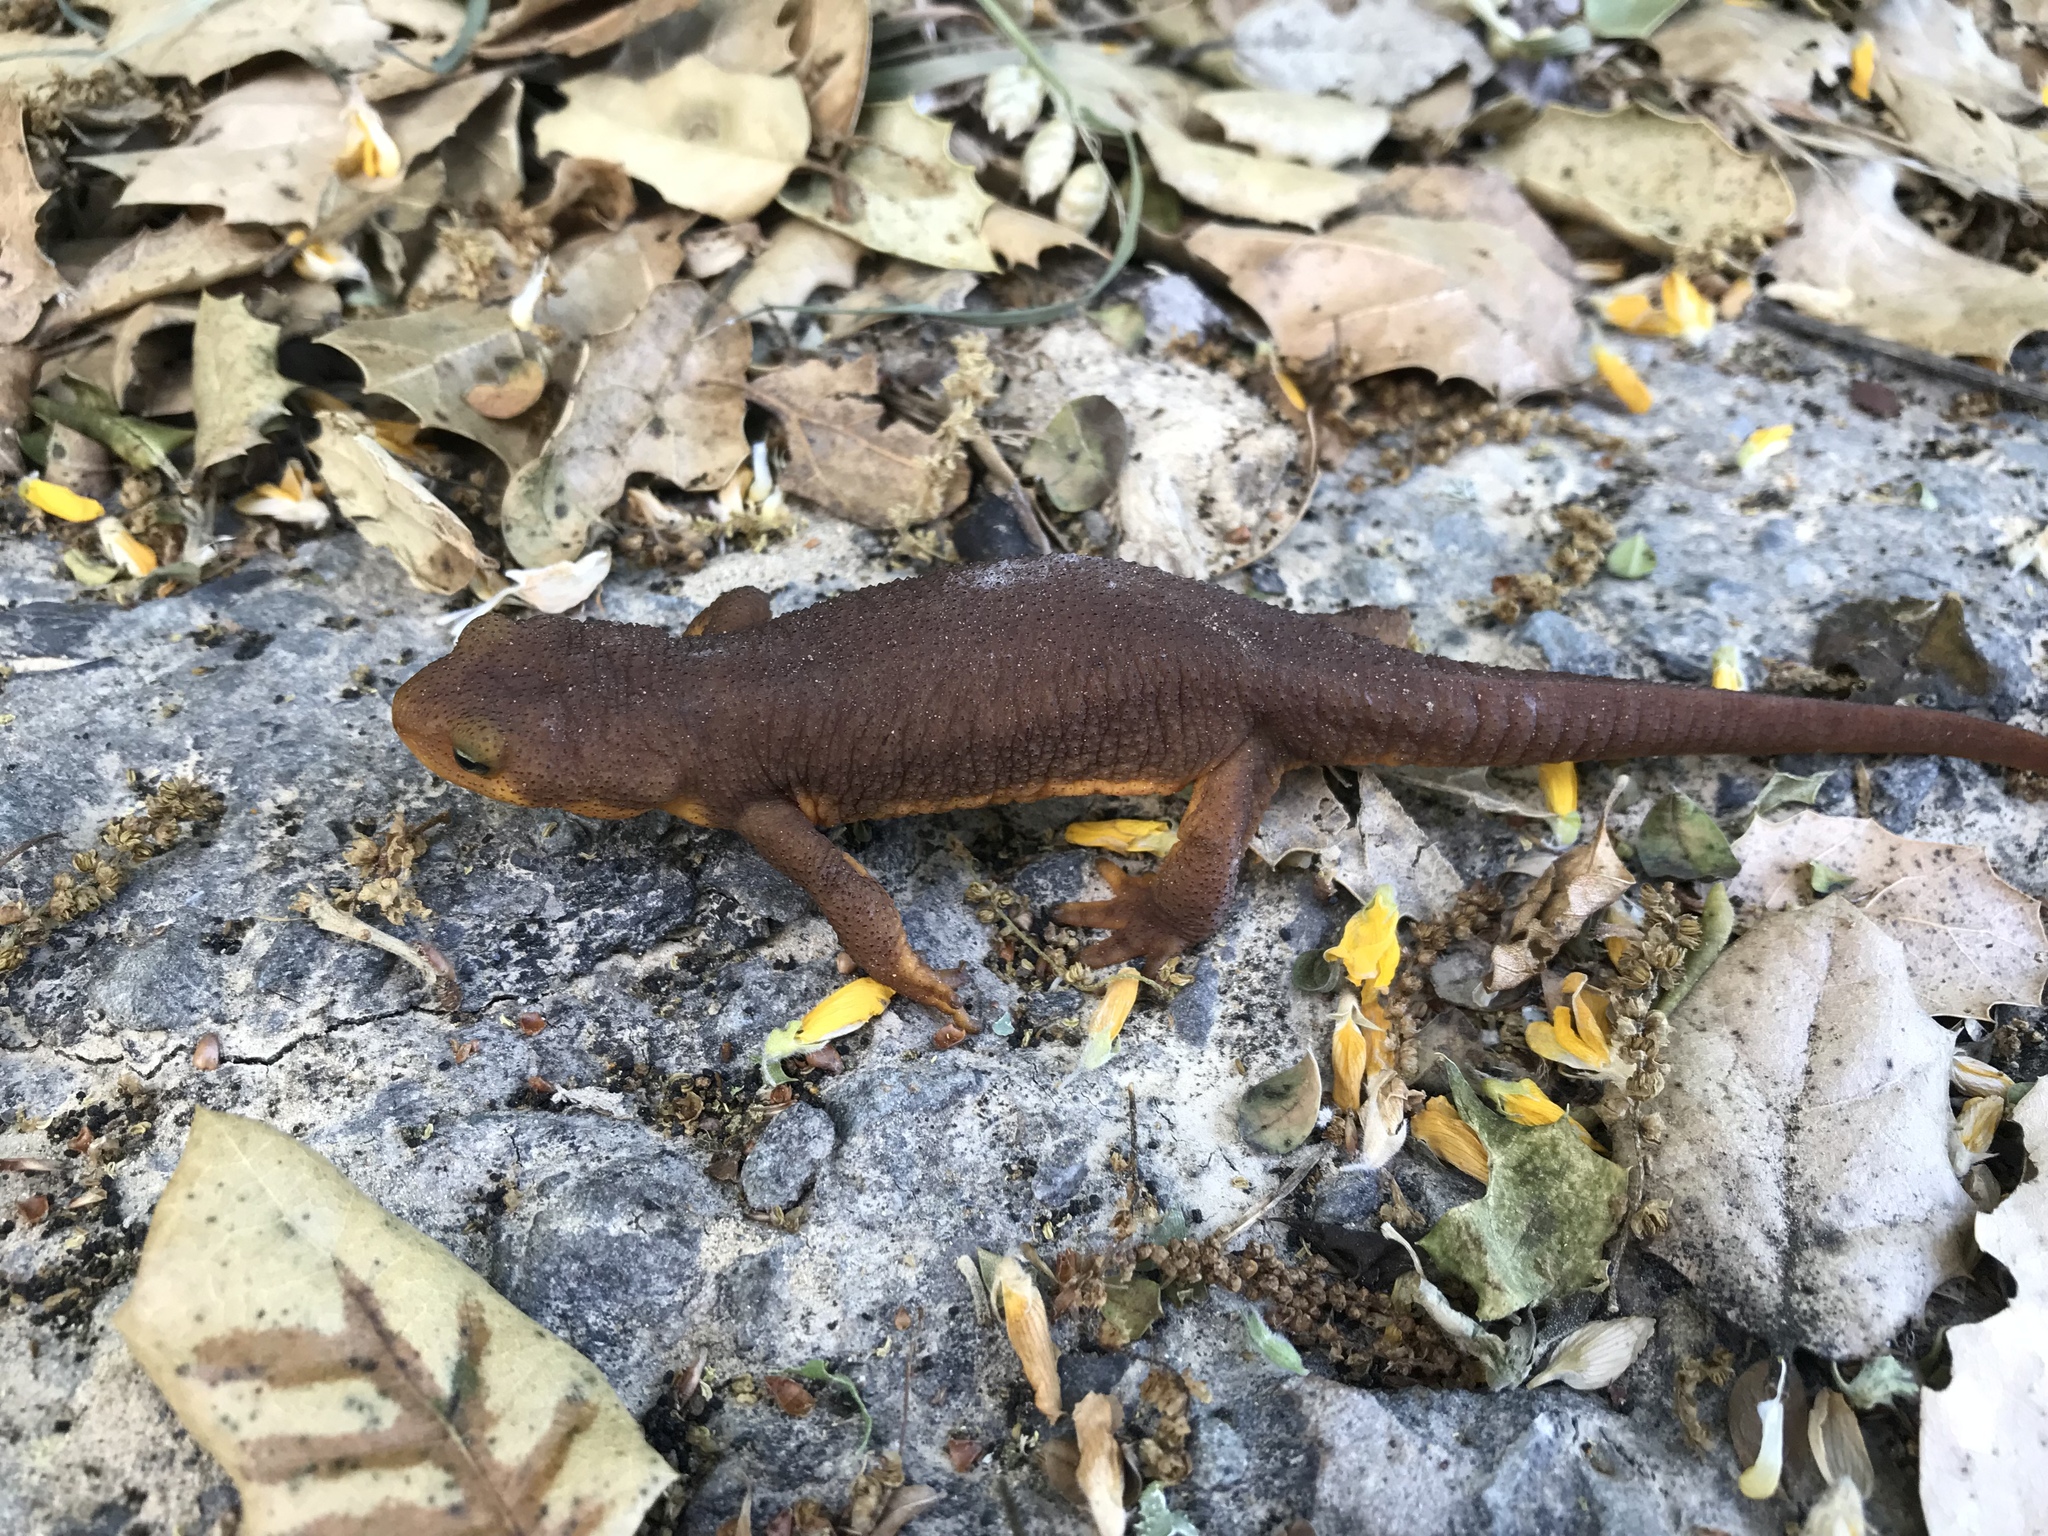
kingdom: Animalia
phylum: Chordata
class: Amphibia
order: Caudata
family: Salamandridae
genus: Taricha
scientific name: Taricha torosa
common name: California newt
